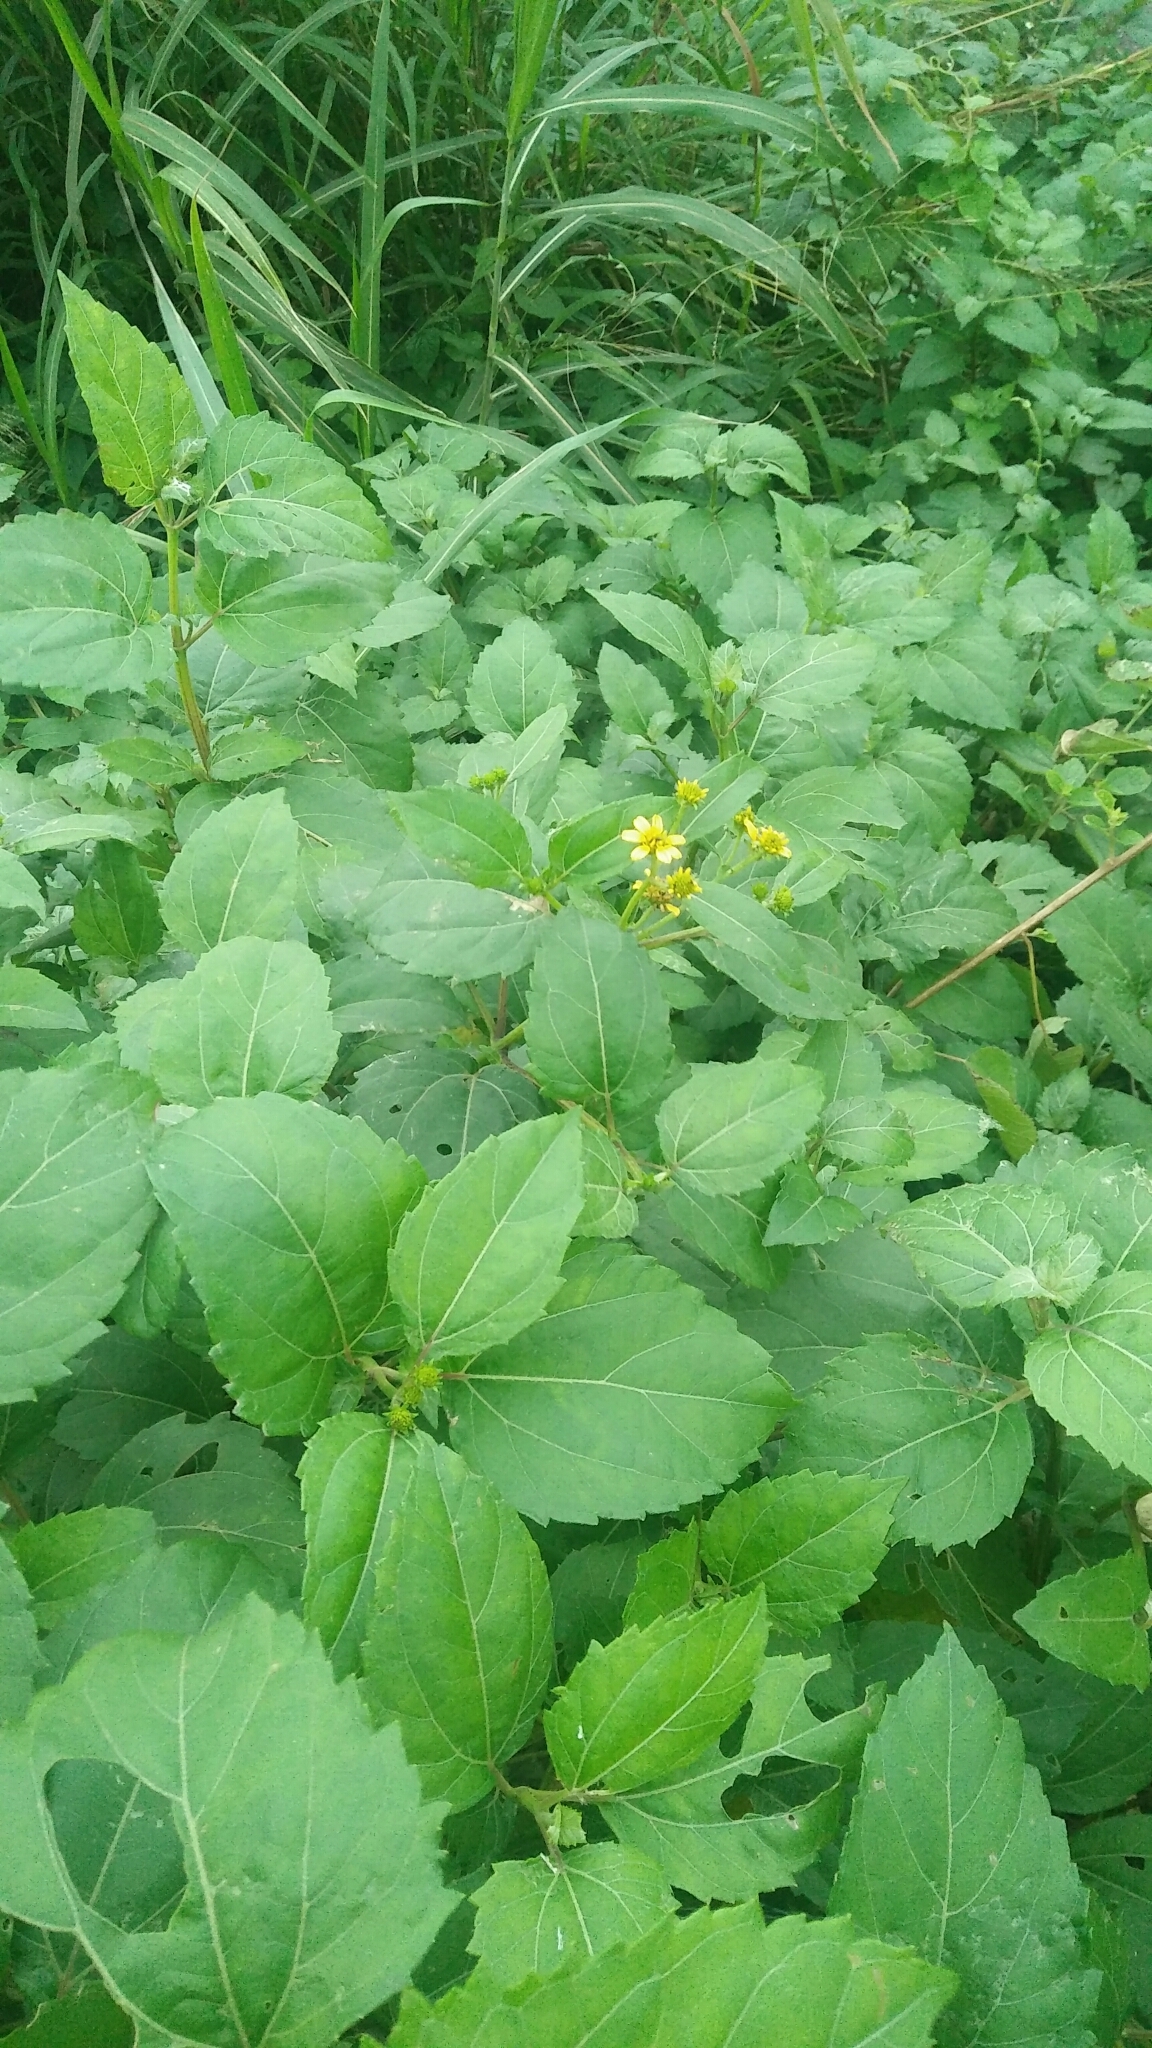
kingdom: Plantae
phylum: Tracheophyta
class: Magnoliopsida
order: Asterales
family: Asteraceae
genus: Wollastonia
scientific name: Wollastonia biflora
